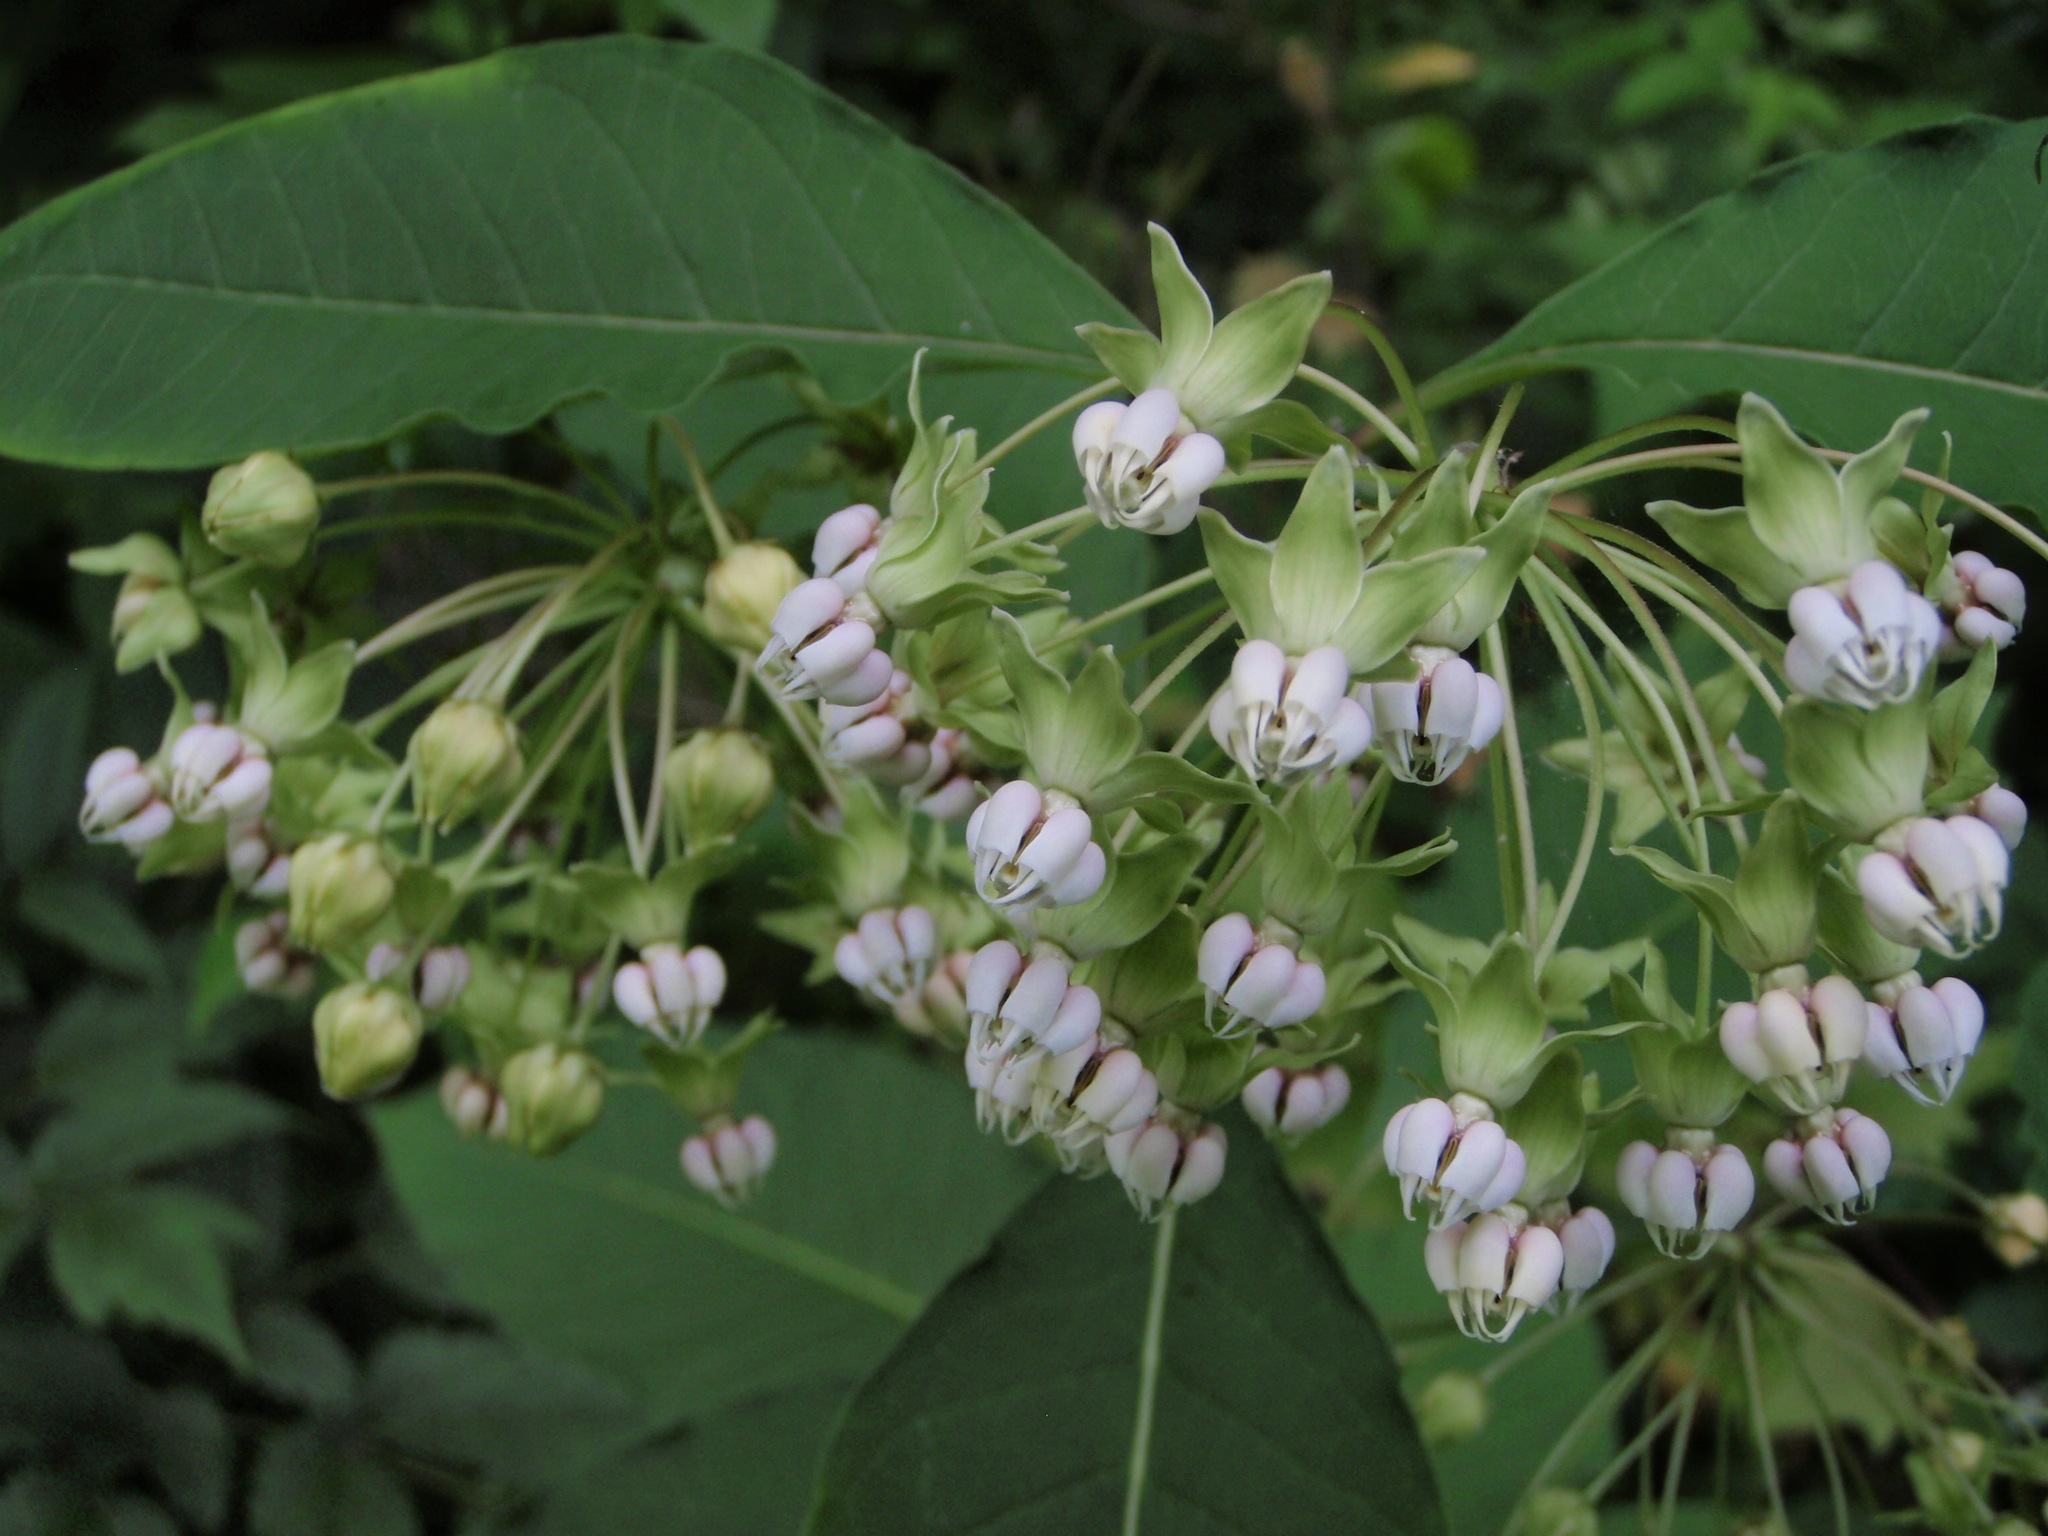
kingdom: Plantae
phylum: Tracheophyta
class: Magnoliopsida
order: Gentianales
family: Apocynaceae
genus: Asclepias
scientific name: Asclepias exaltata
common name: Poke milkweed
